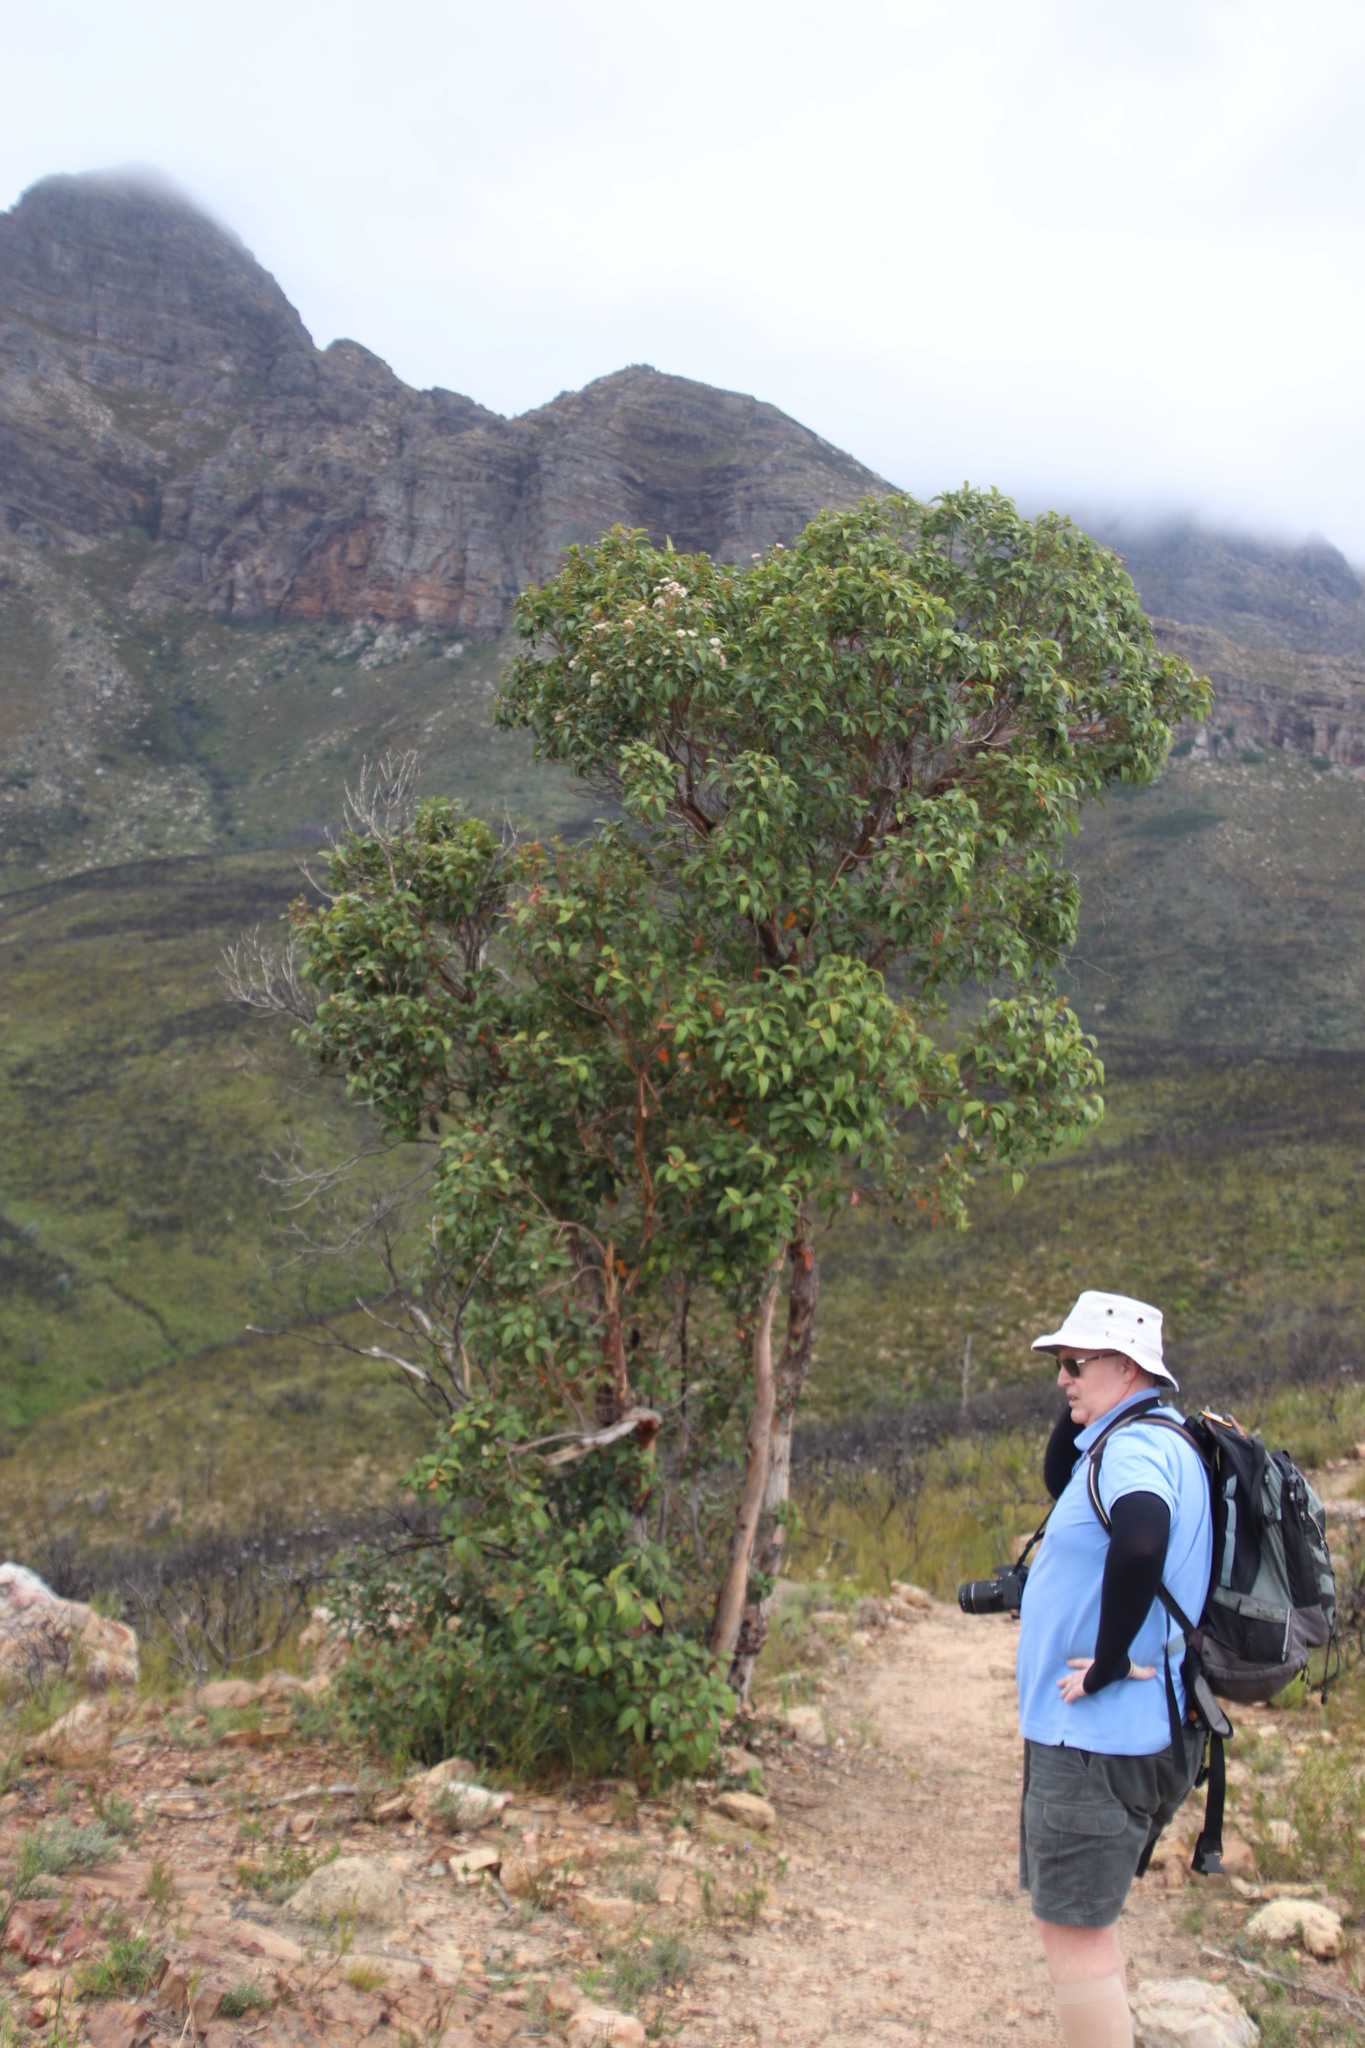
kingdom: Plantae
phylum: Tracheophyta
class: Magnoliopsida
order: Myrtales
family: Myrtaceae
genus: Corymbia
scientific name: Corymbia calophylla
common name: Marri
